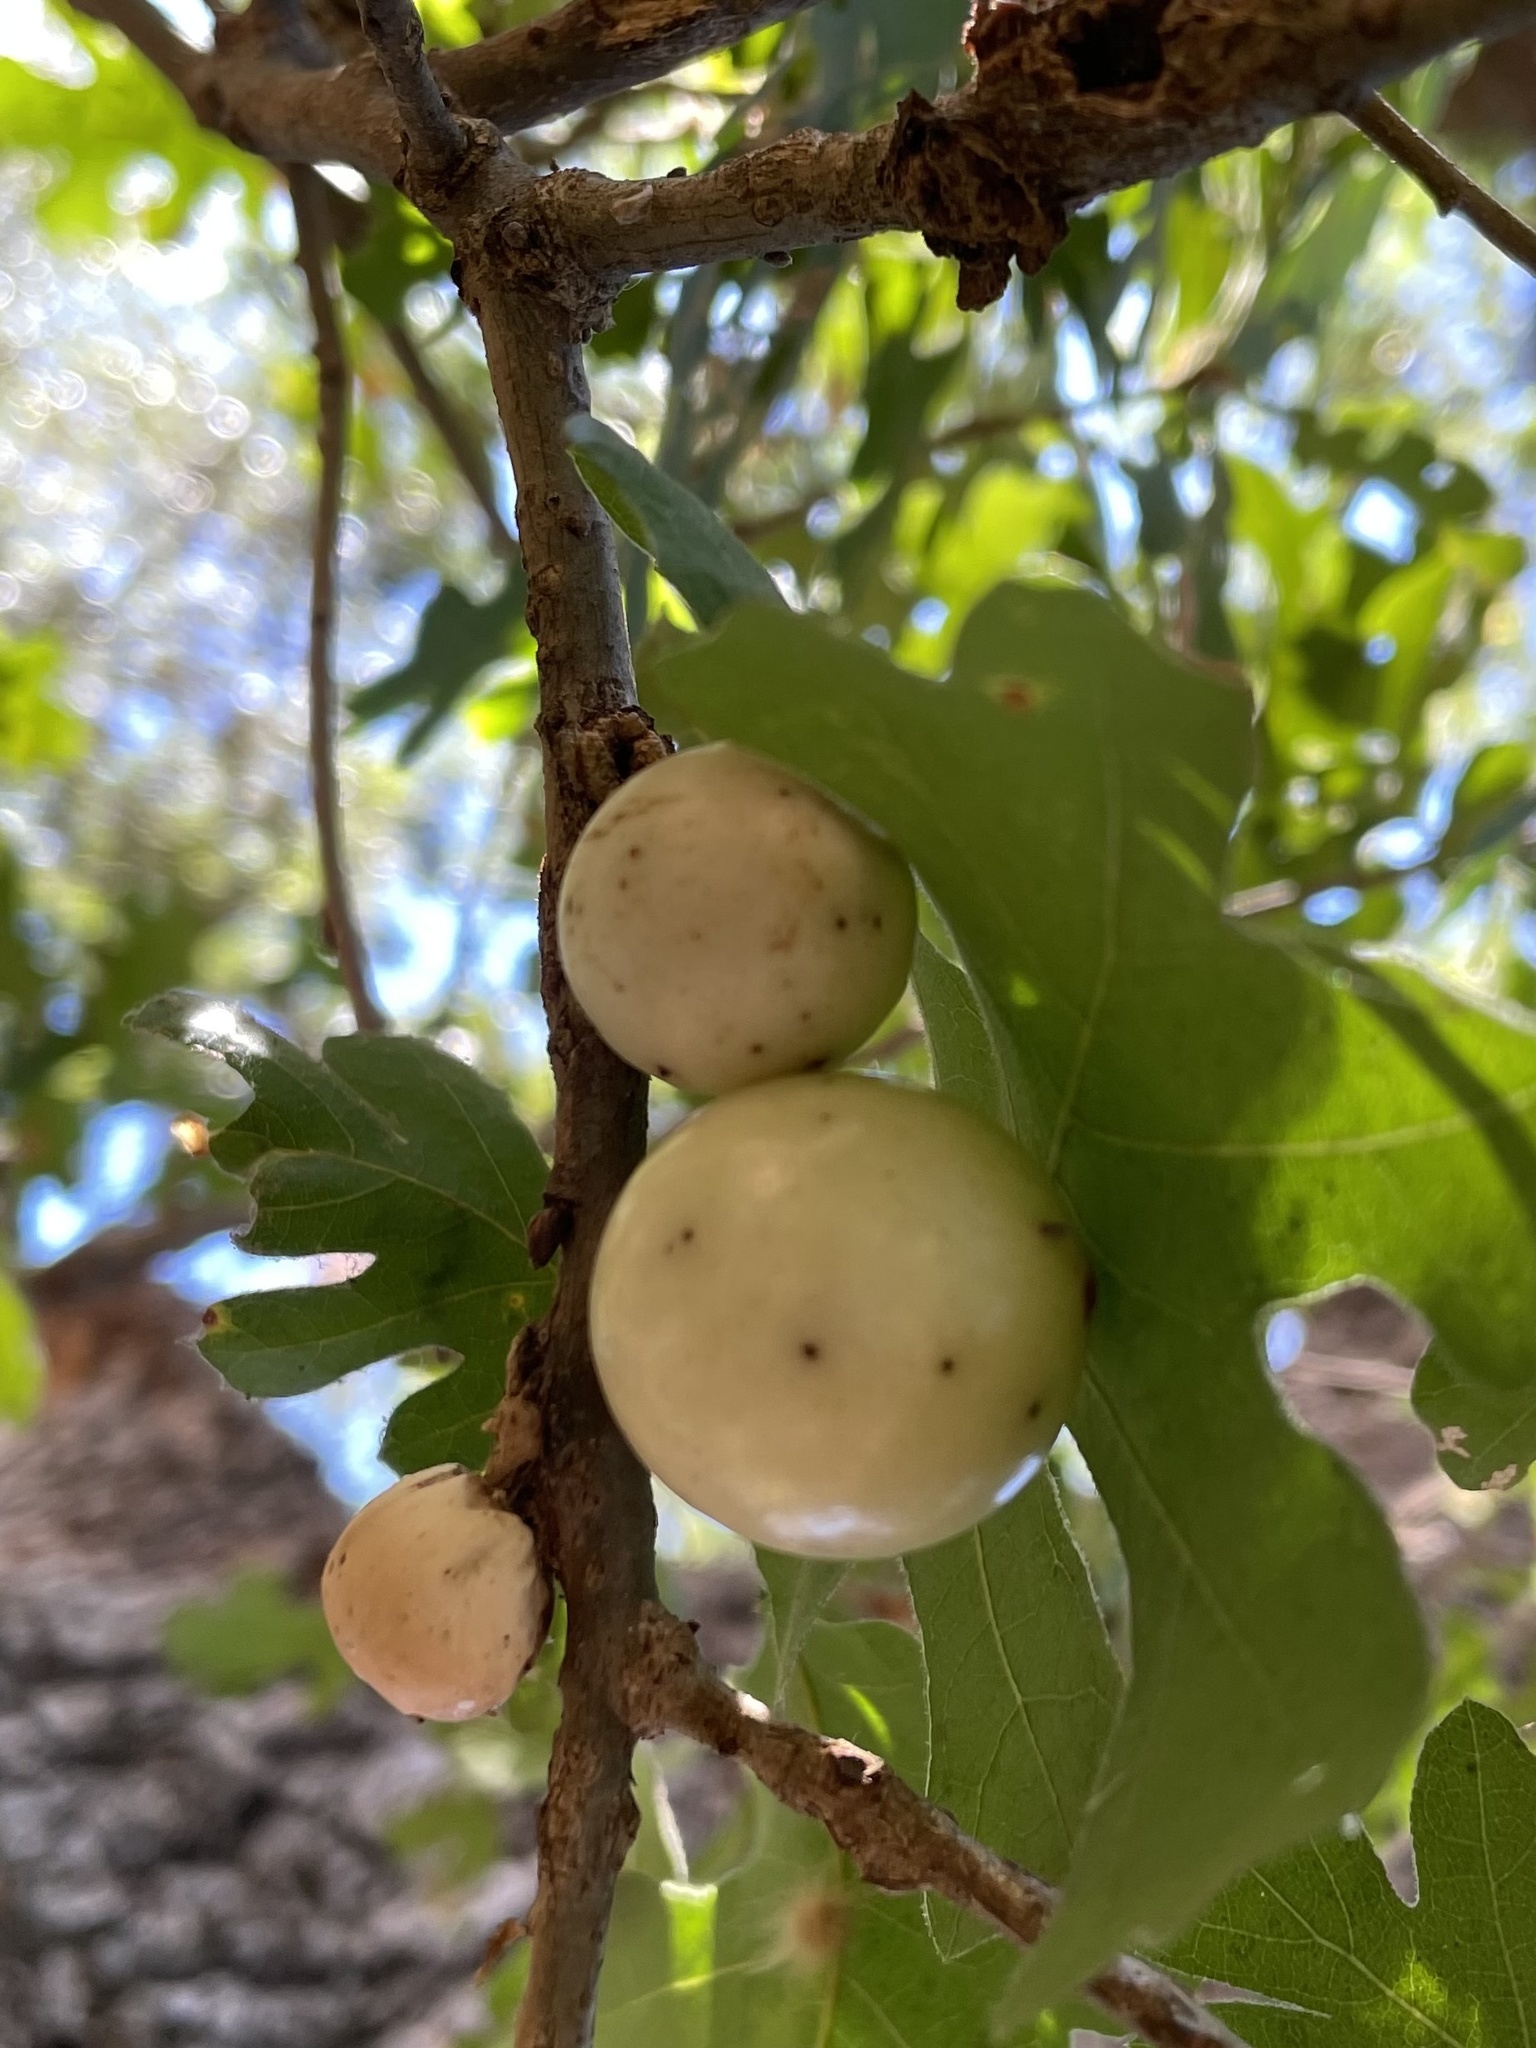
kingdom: Animalia
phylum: Arthropoda
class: Insecta
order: Hymenoptera
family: Cynipidae
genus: Andricus
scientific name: Andricus quercuscalifornicus
